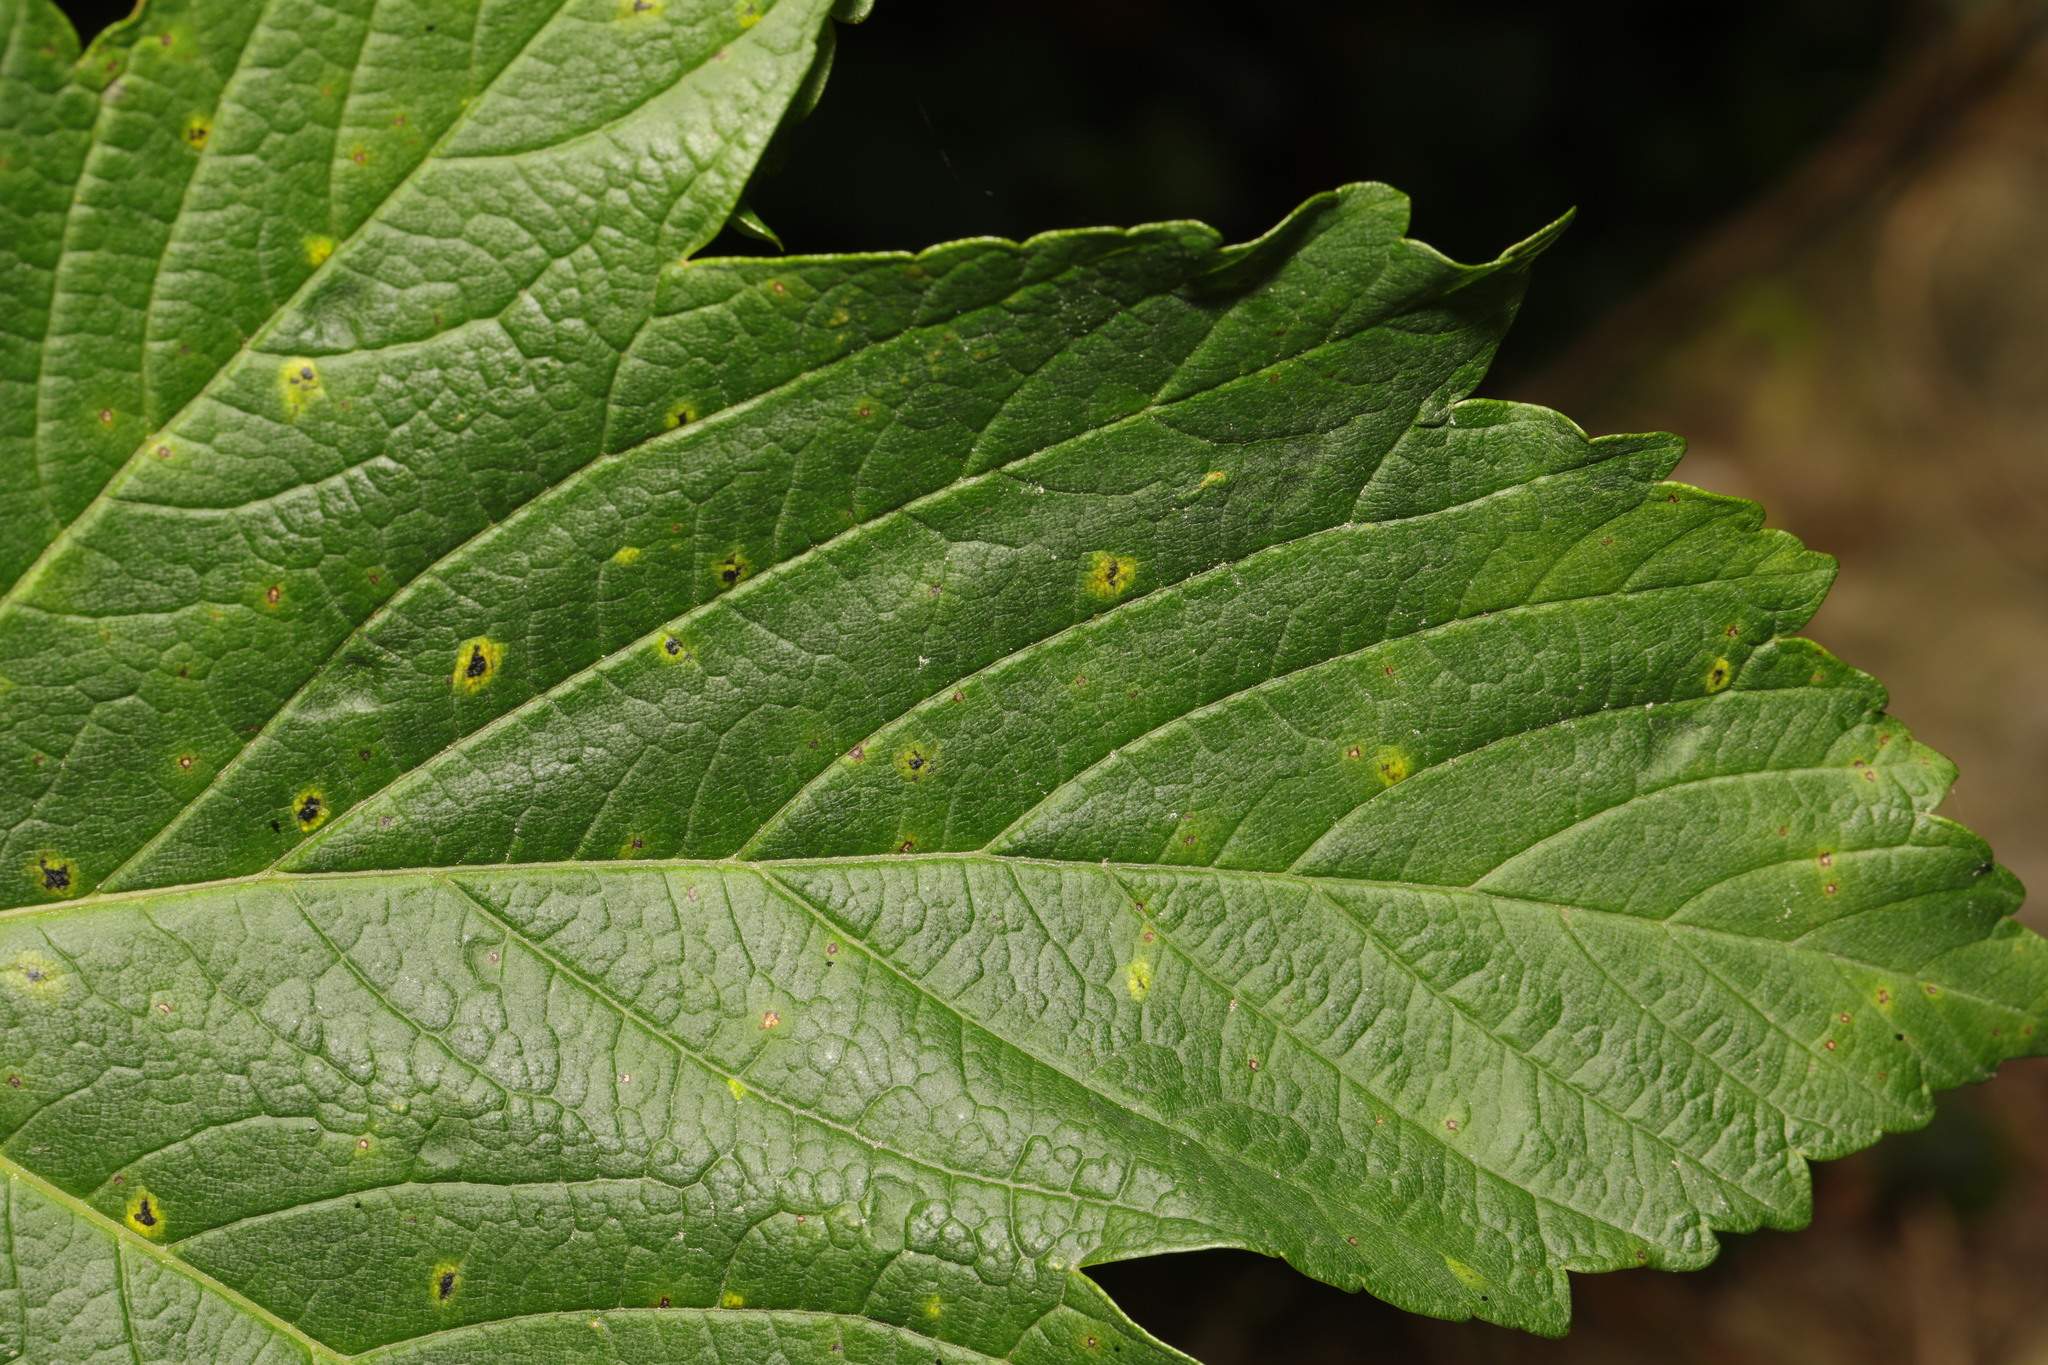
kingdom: Animalia
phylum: Arthropoda
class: Arachnida
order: Trombidiformes
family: Eriophyidae
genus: Aceria
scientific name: Aceria pseudoplatani
